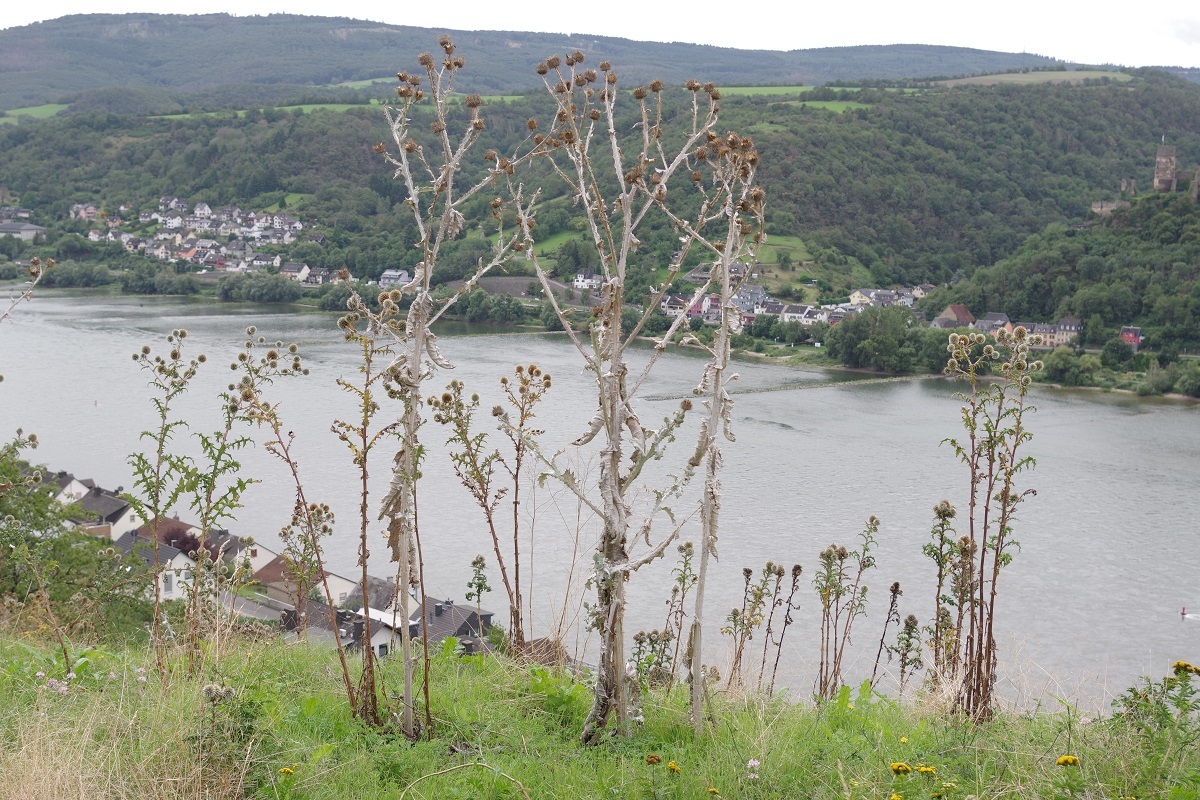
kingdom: Plantae
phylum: Tracheophyta
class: Magnoliopsida
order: Asterales
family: Asteraceae
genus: Onopordum
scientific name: Onopordum acanthium
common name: Scotch thistle
